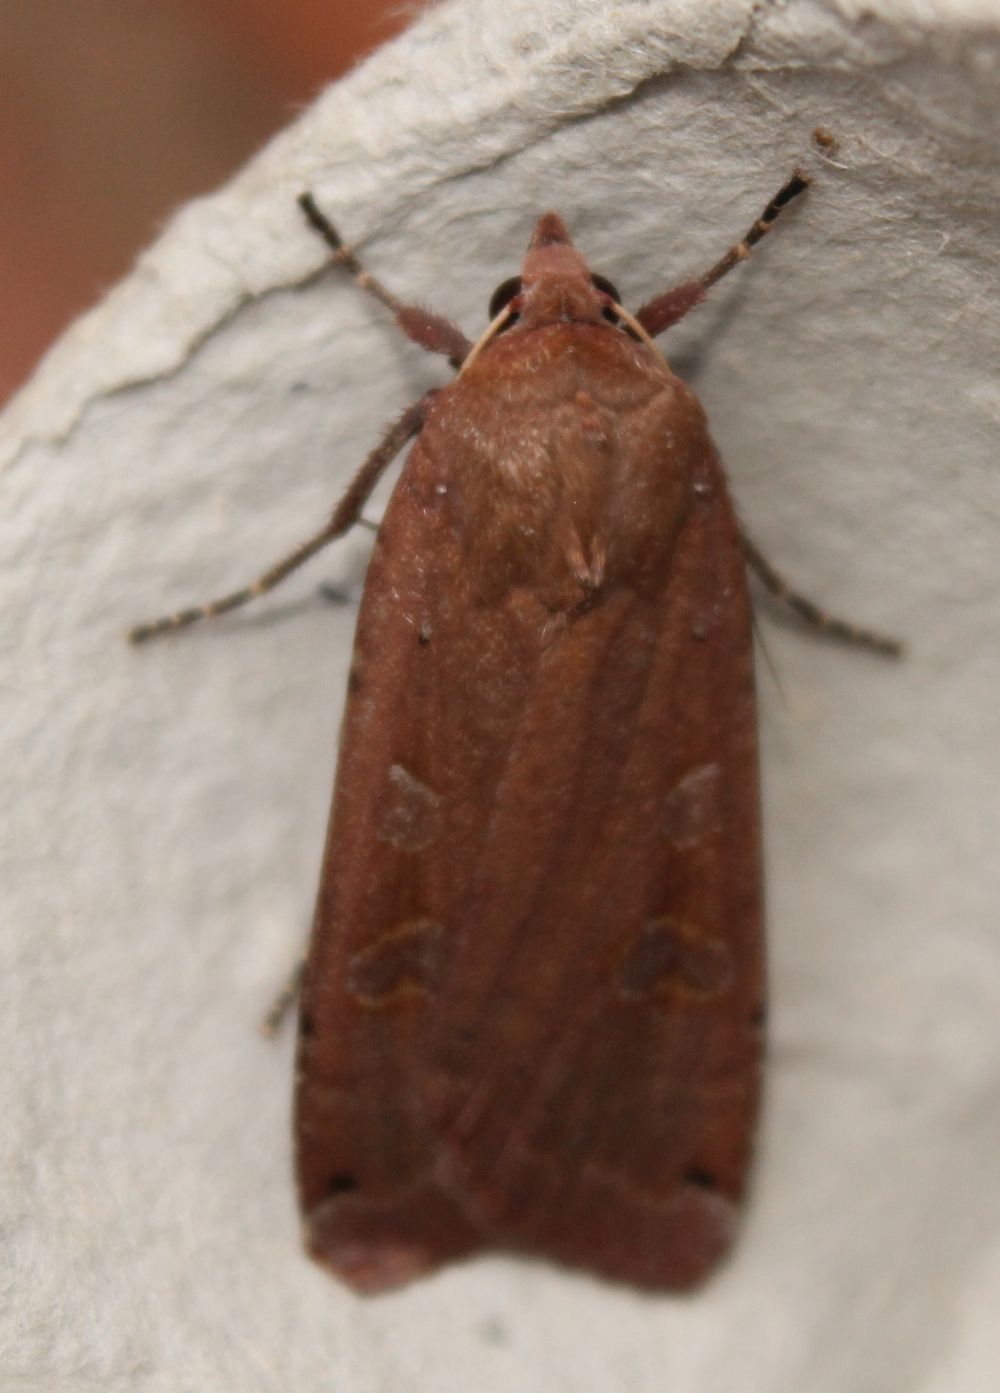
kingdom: Animalia
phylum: Arthropoda
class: Insecta
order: Lepidoptera
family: Noctuidae
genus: Noctua
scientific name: Noctua pronuba
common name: Large yellow underwing
